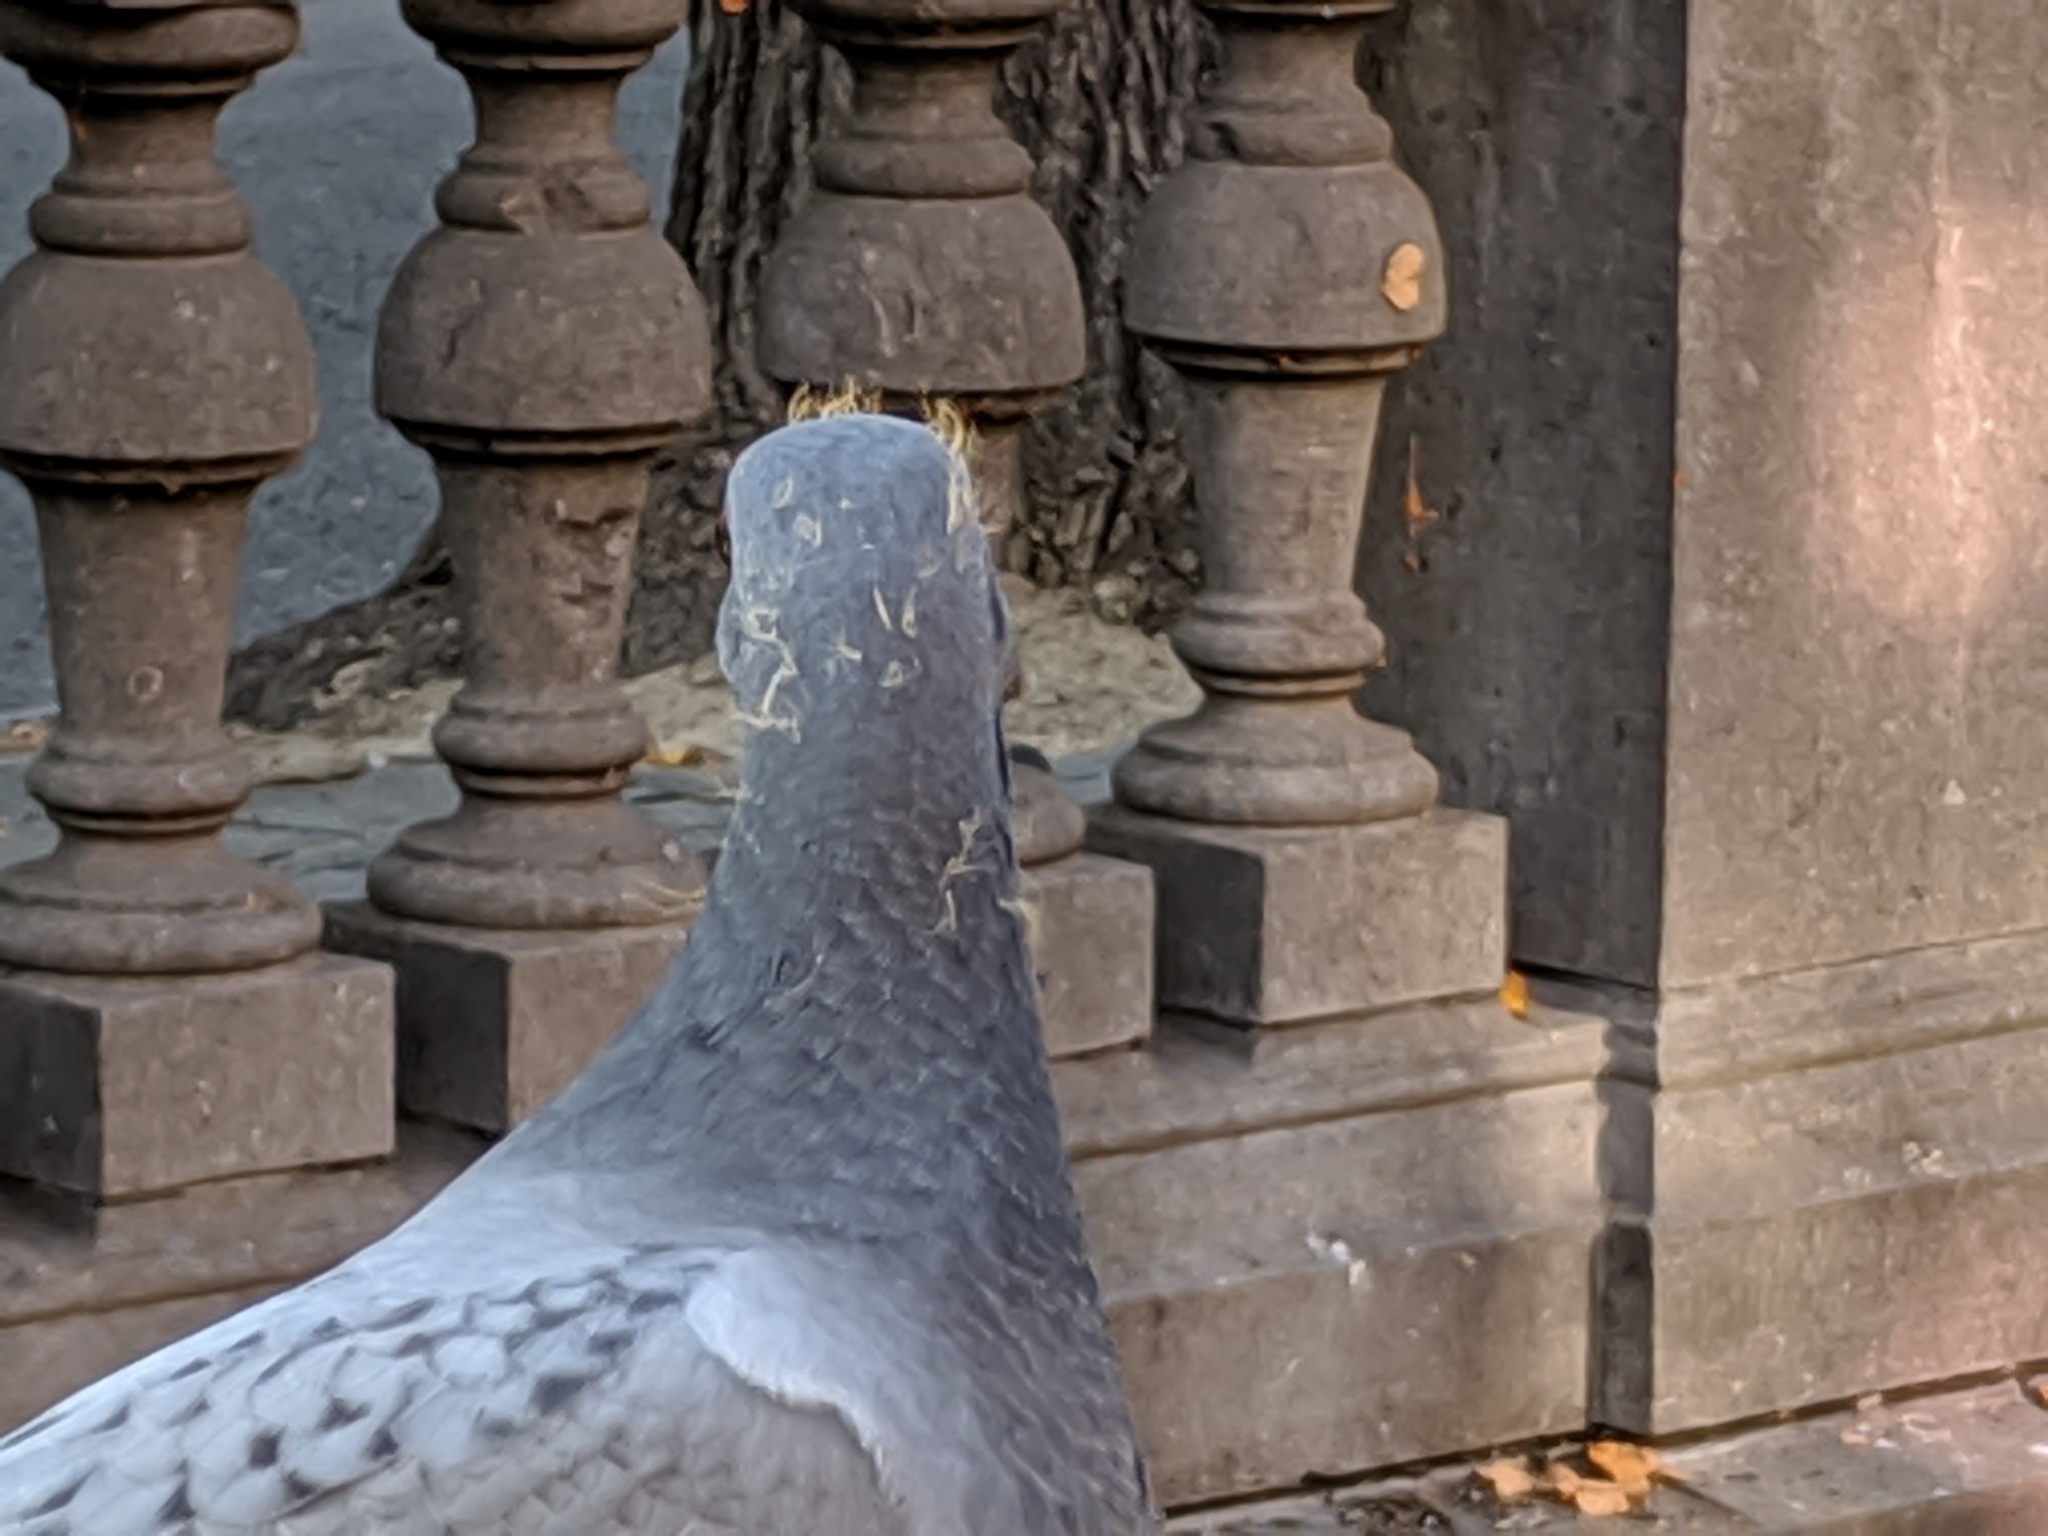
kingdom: Animalia
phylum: Chordata
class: Aves
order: Columbiformes
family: Columbidae
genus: Columba
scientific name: Columba livia
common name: Rock pigeon
